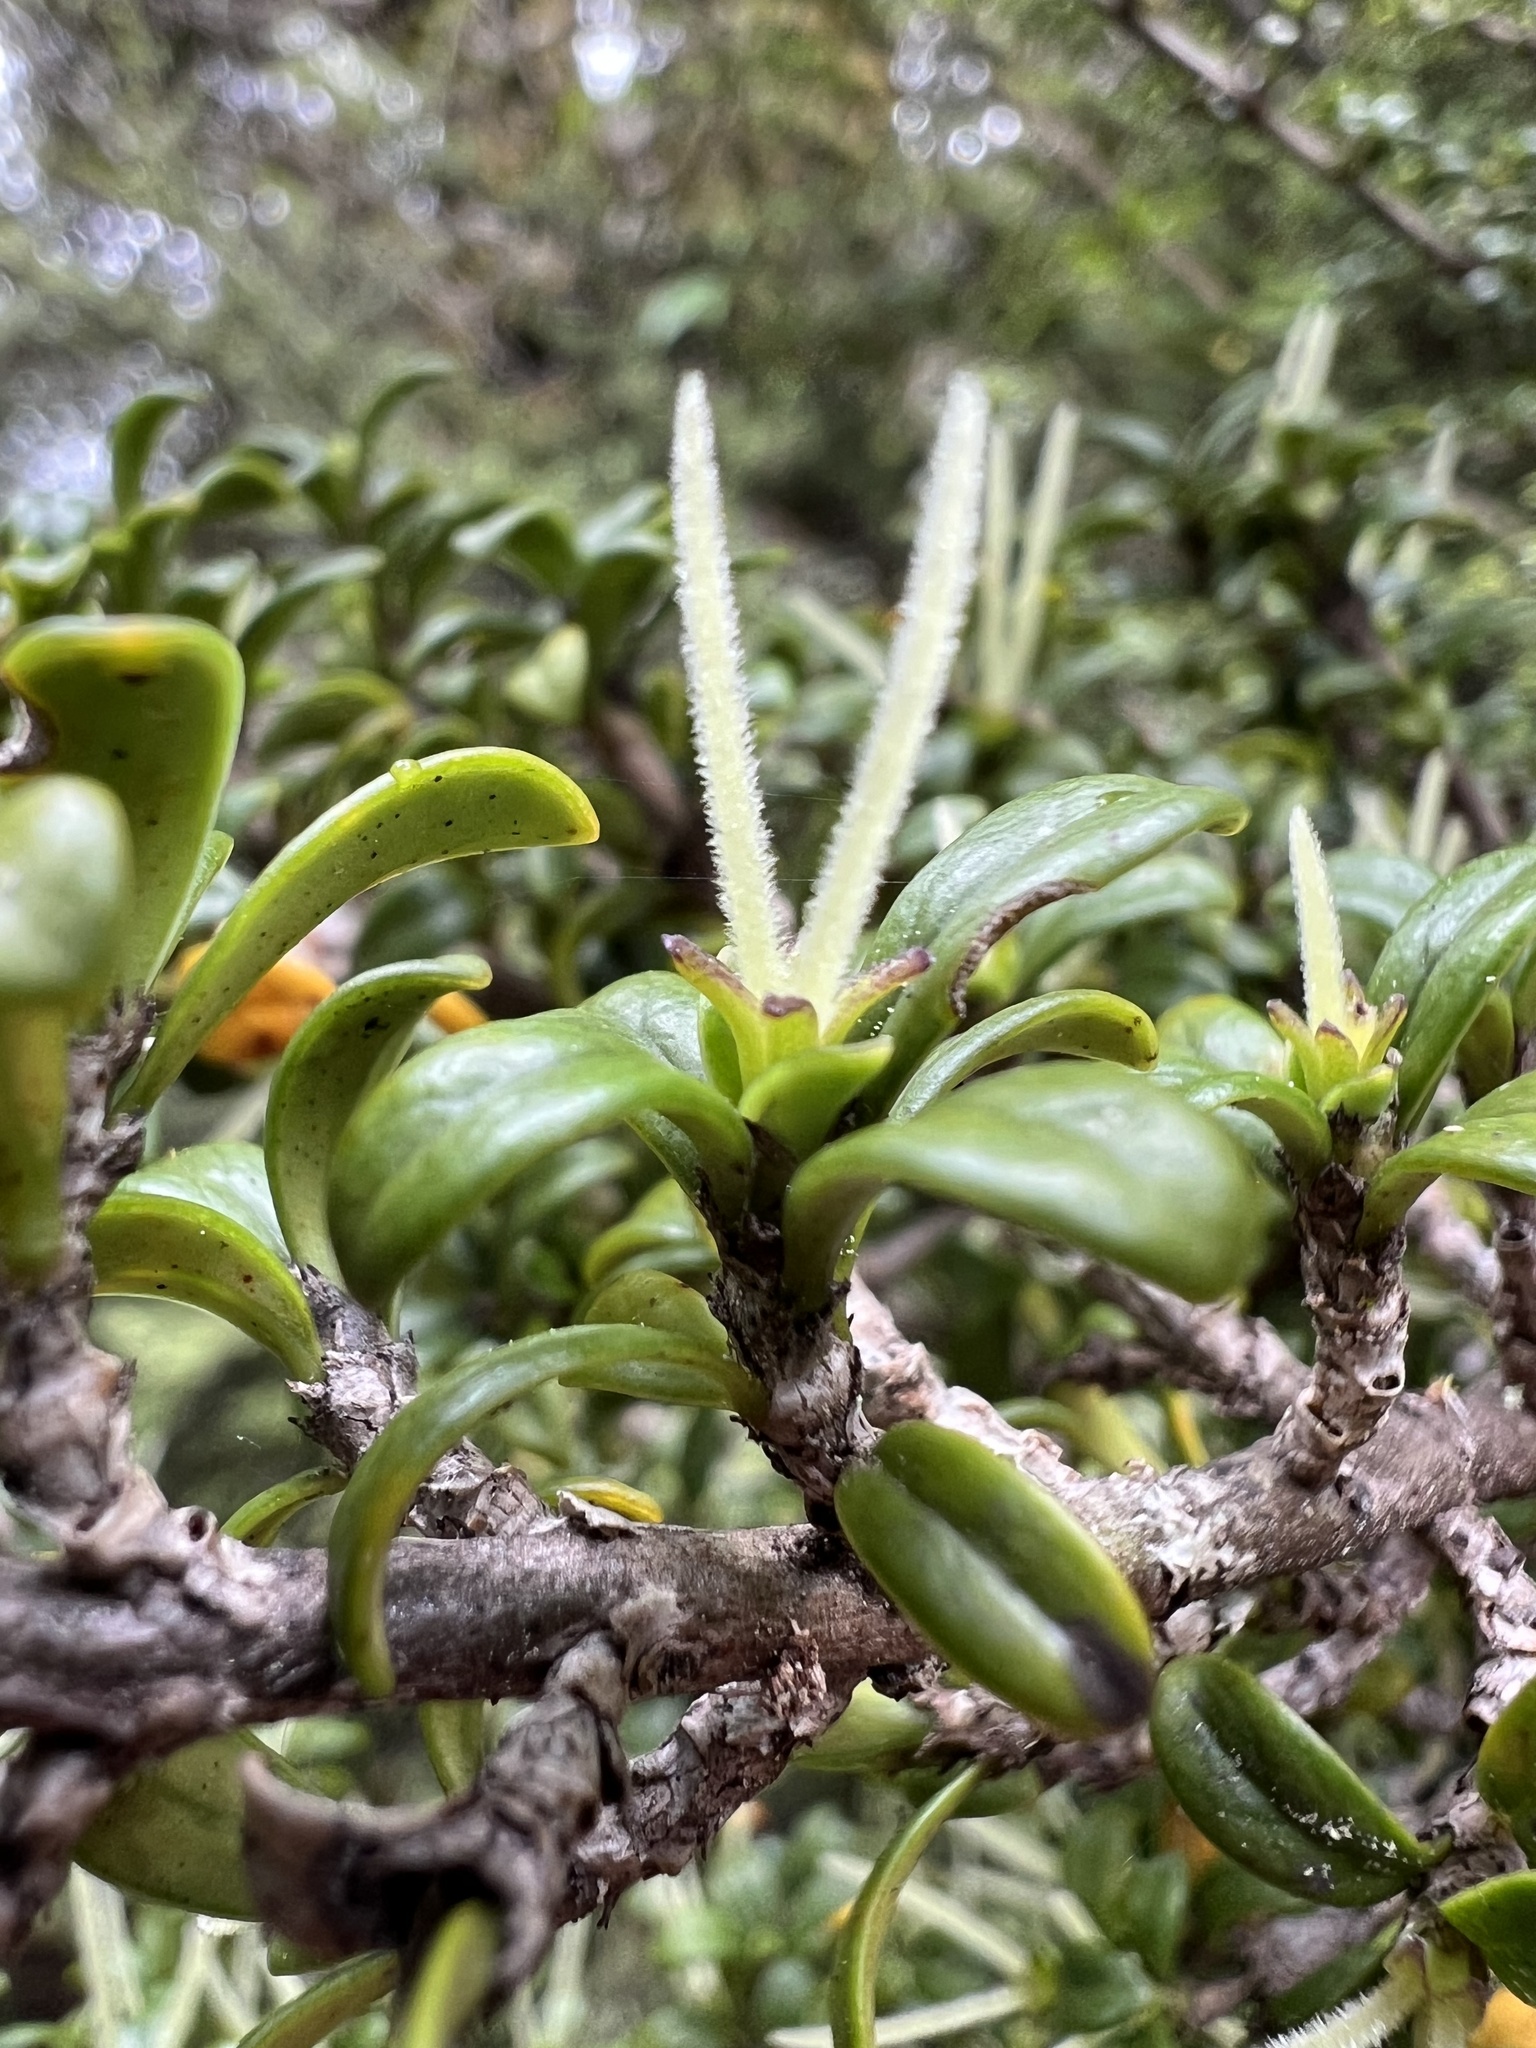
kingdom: Plantae
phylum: Tracheophyta
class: Magnoliopsida
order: Gentianales
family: Rubiaceae
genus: Coprosma
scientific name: Coprosma pseudocuneata
